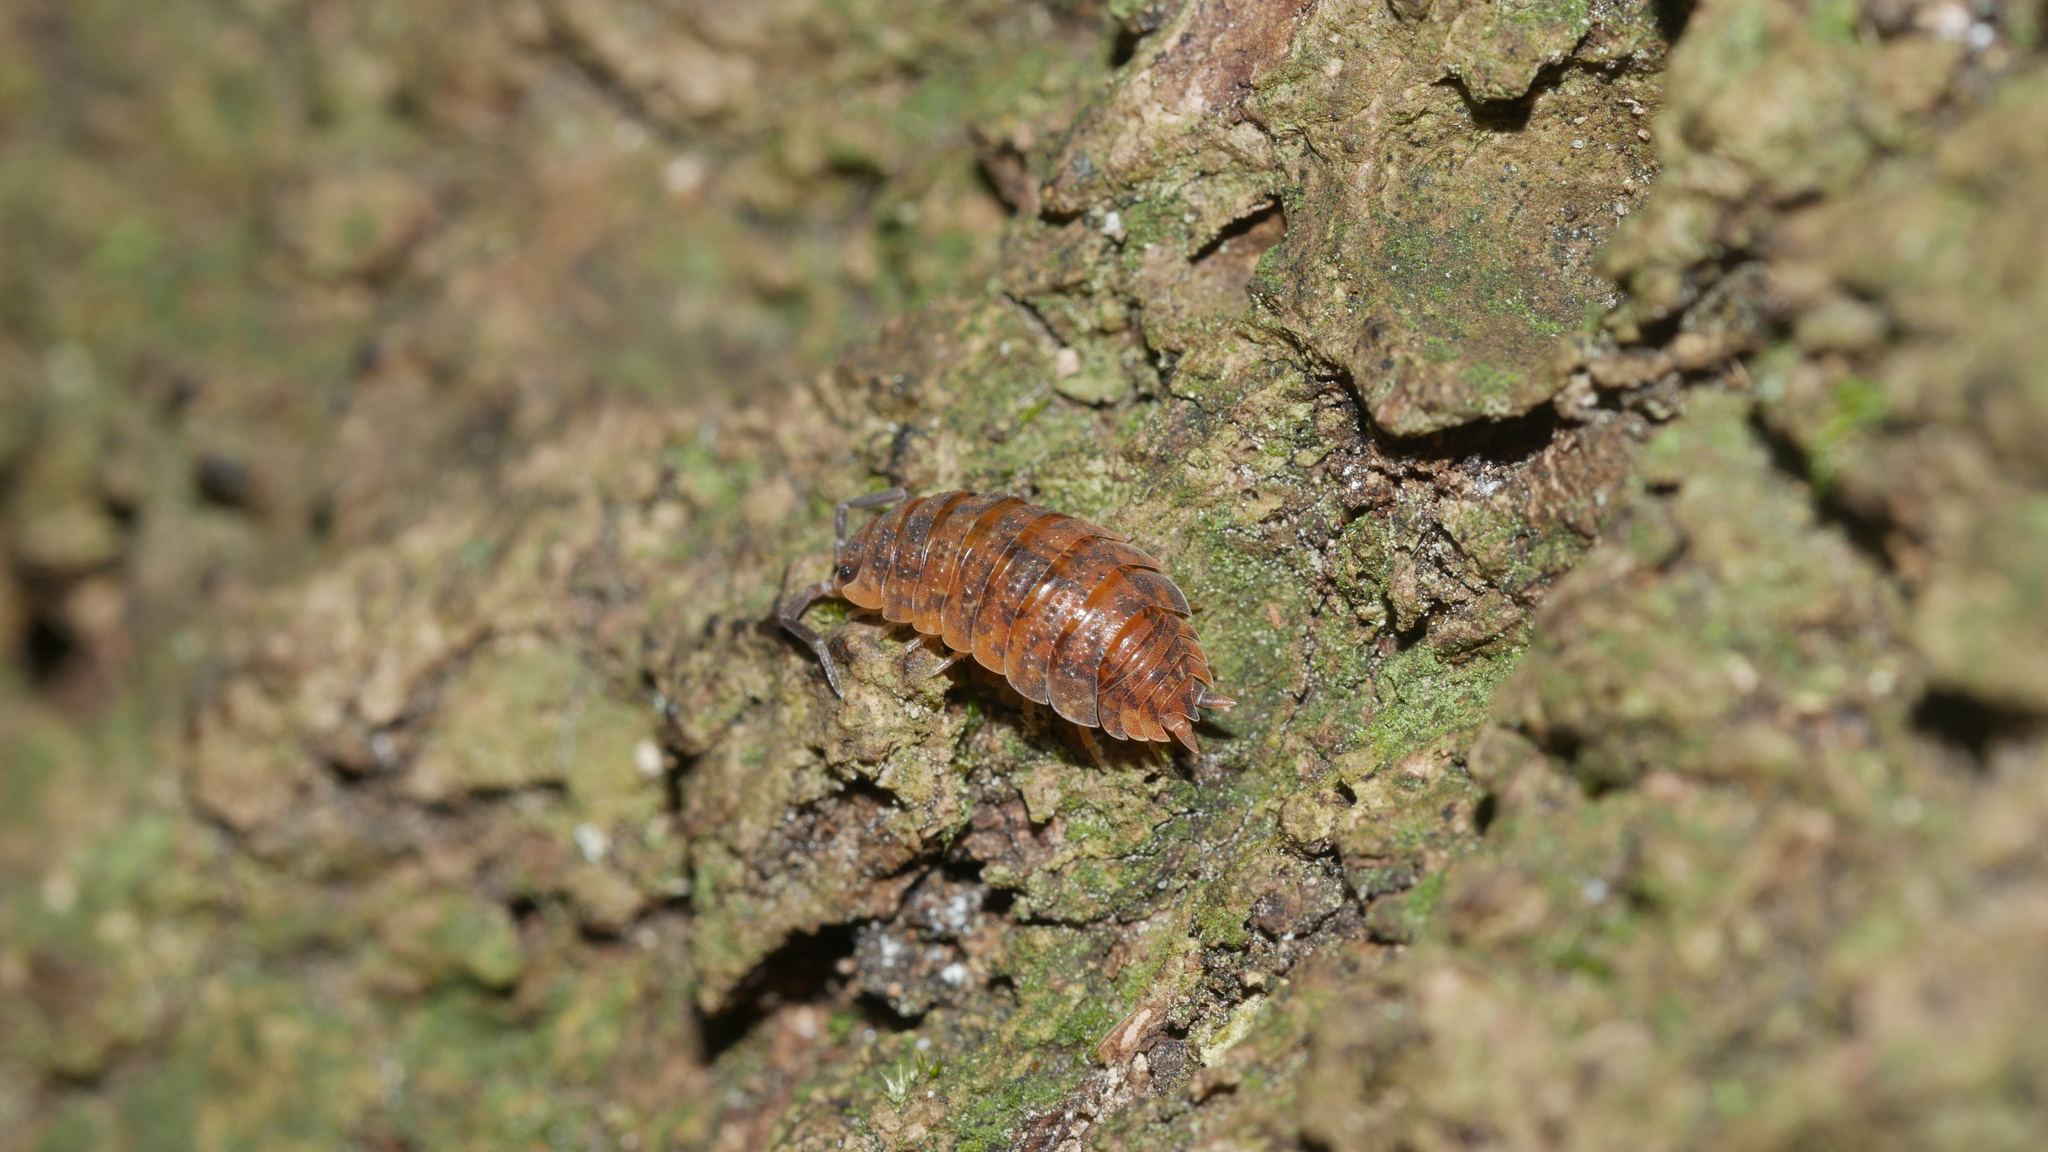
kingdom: Animalia
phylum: Arthropoda
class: Malacostraca
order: Isopoda
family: Porcellionidae
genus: Porcellio
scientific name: Porcellio scaber
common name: Common rough woodlouse
